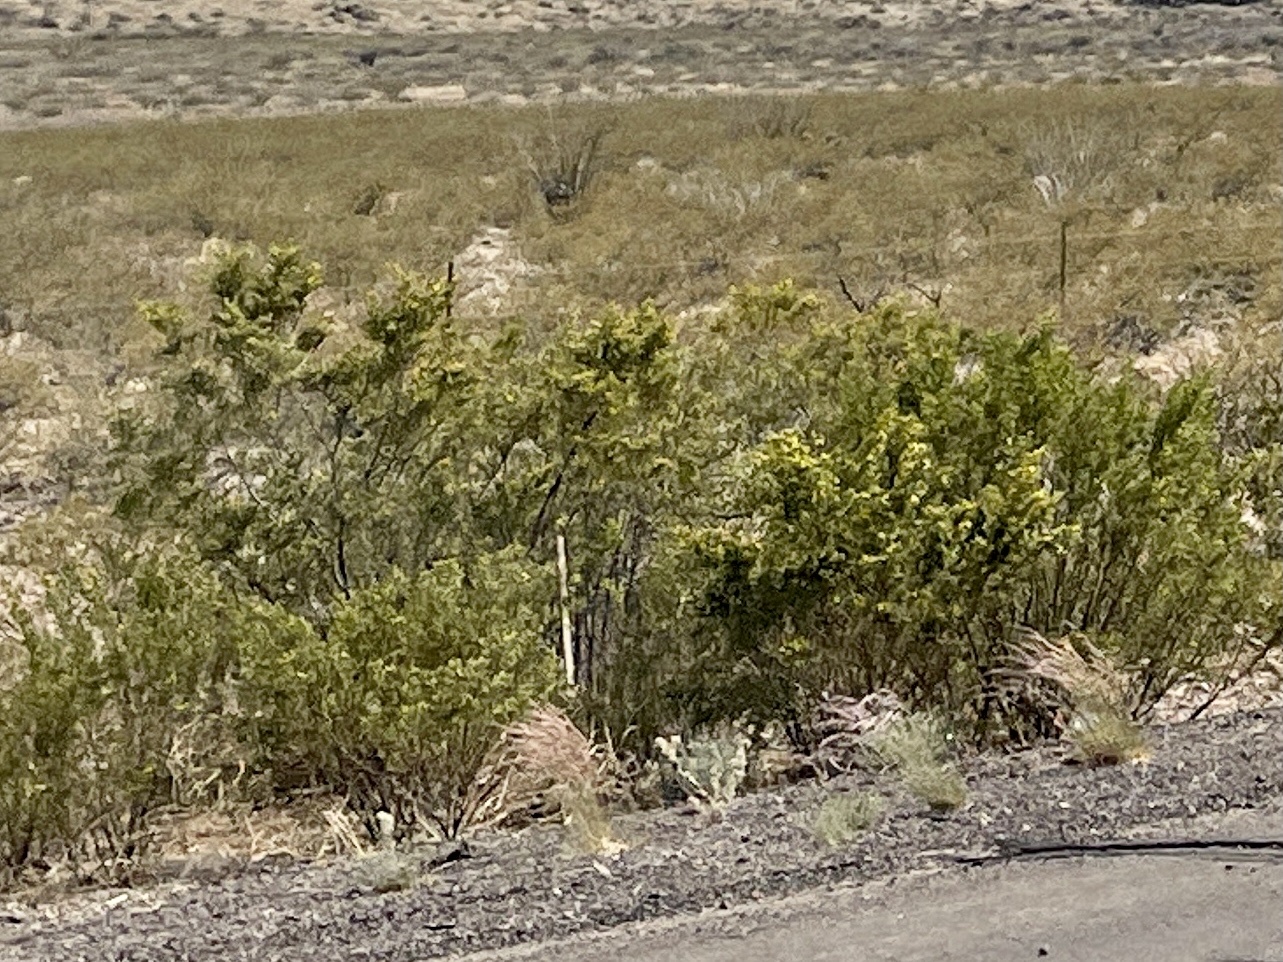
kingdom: Plantae
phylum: Tracheophyta
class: Magnoliopsida
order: Zygophyllales
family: Zygophyllaceae
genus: Larrea
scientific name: Larrea tridentata
